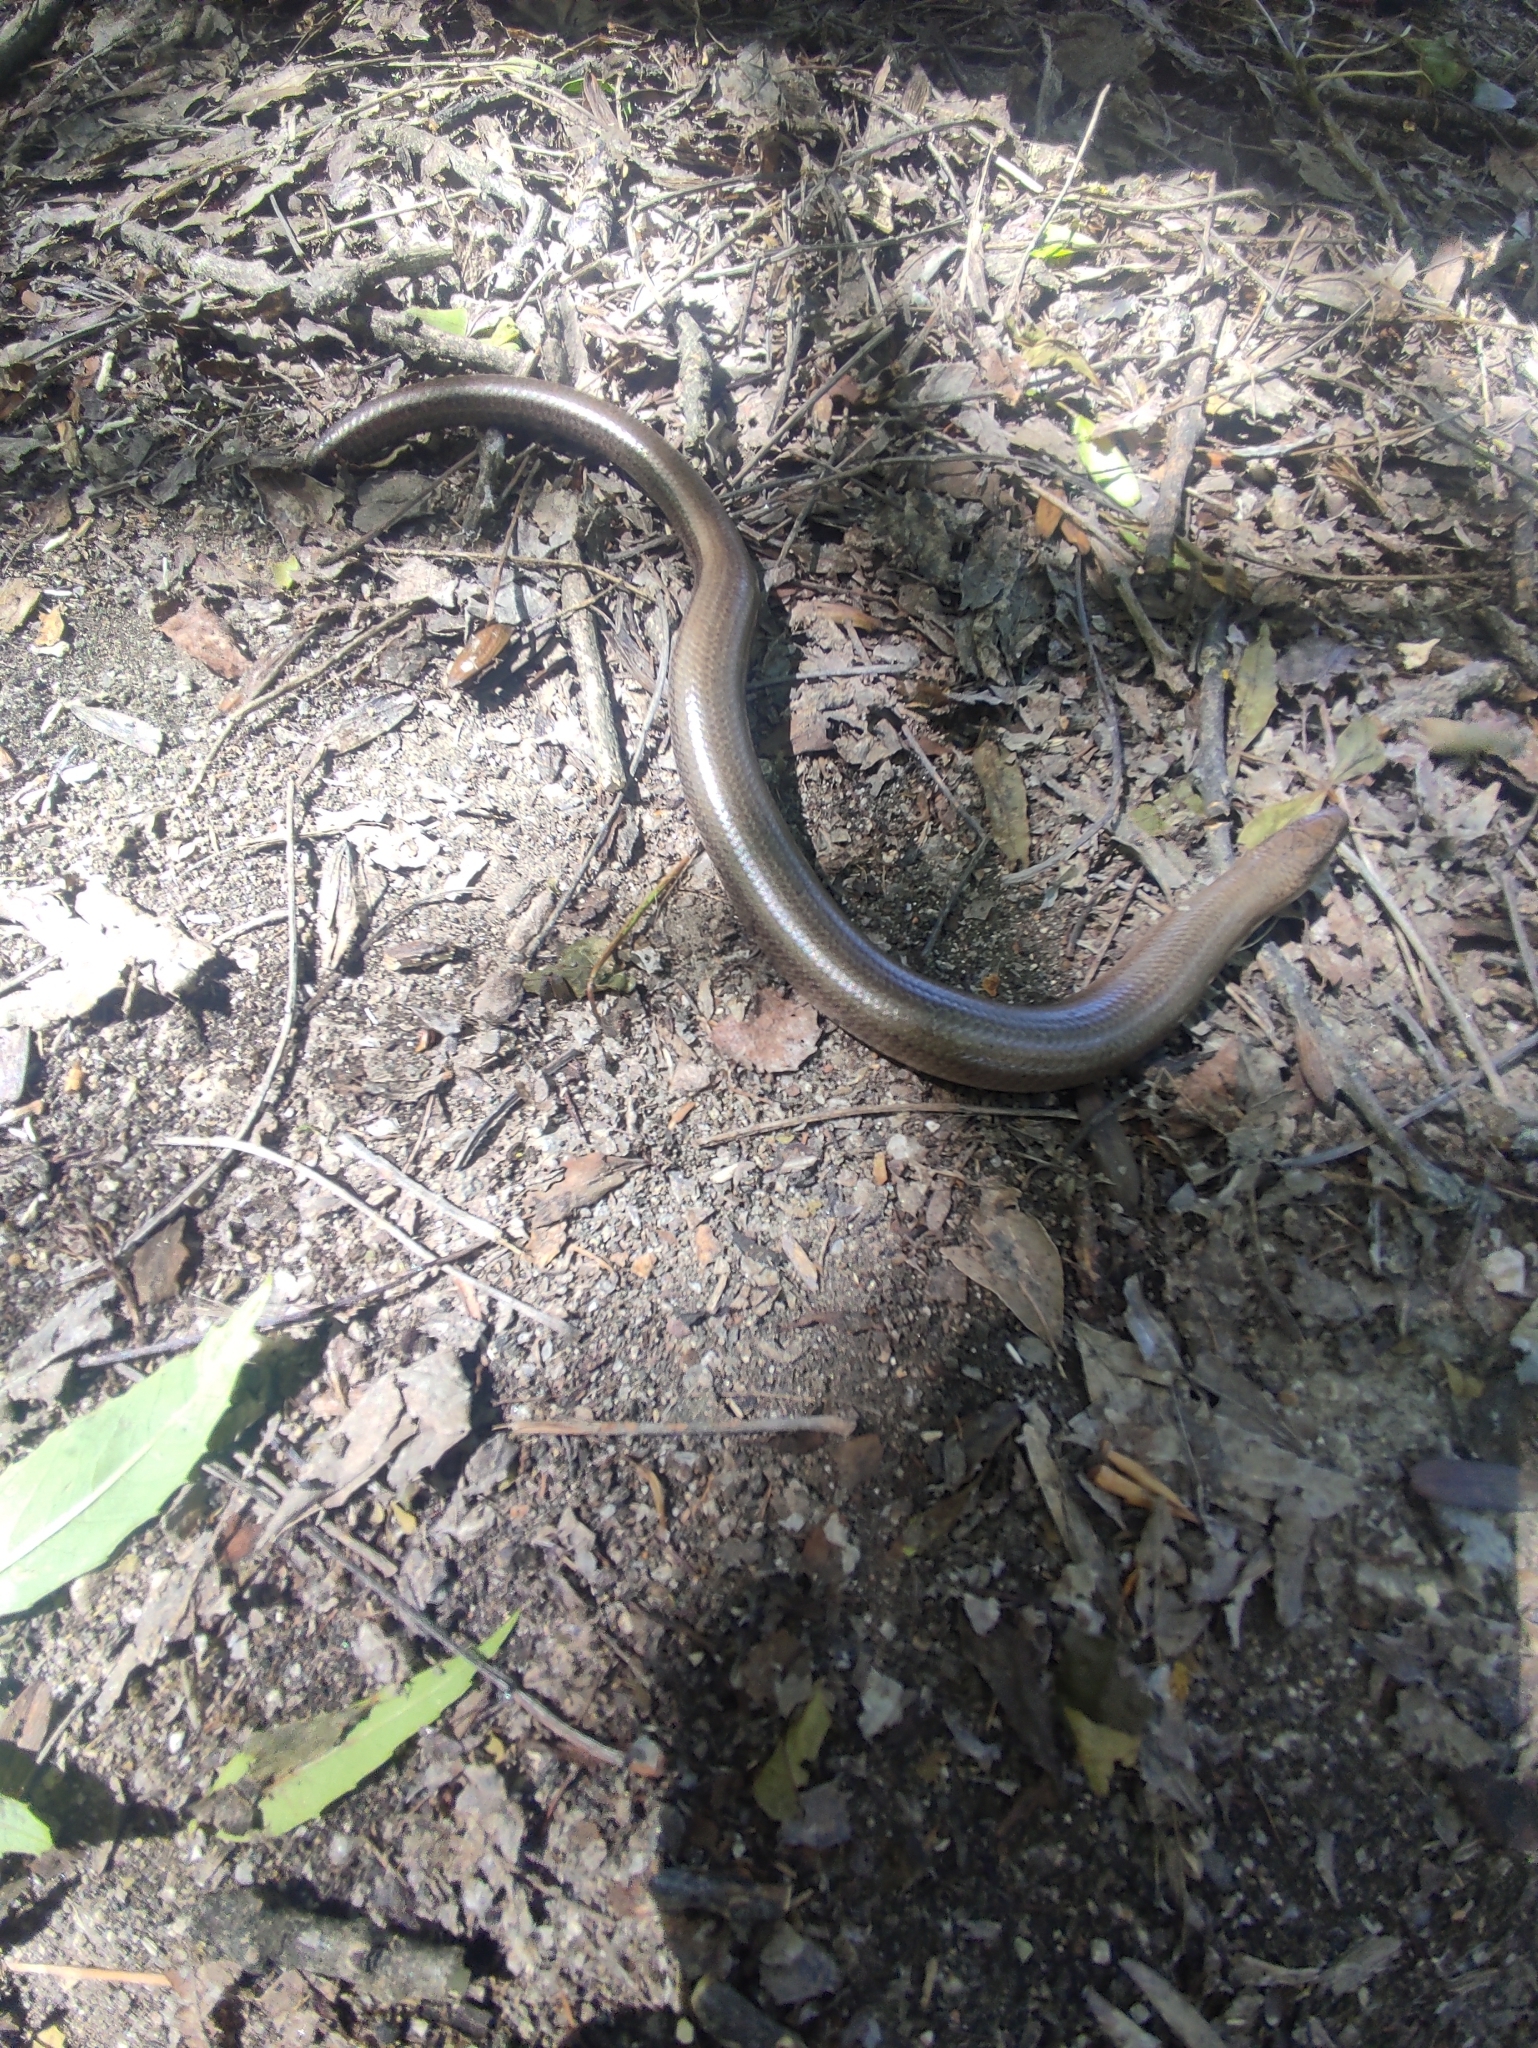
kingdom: Animalia
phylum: Chordata
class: Squamata
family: Anguidae
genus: Anguis
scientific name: Anguis fragilis
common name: Slow worm
